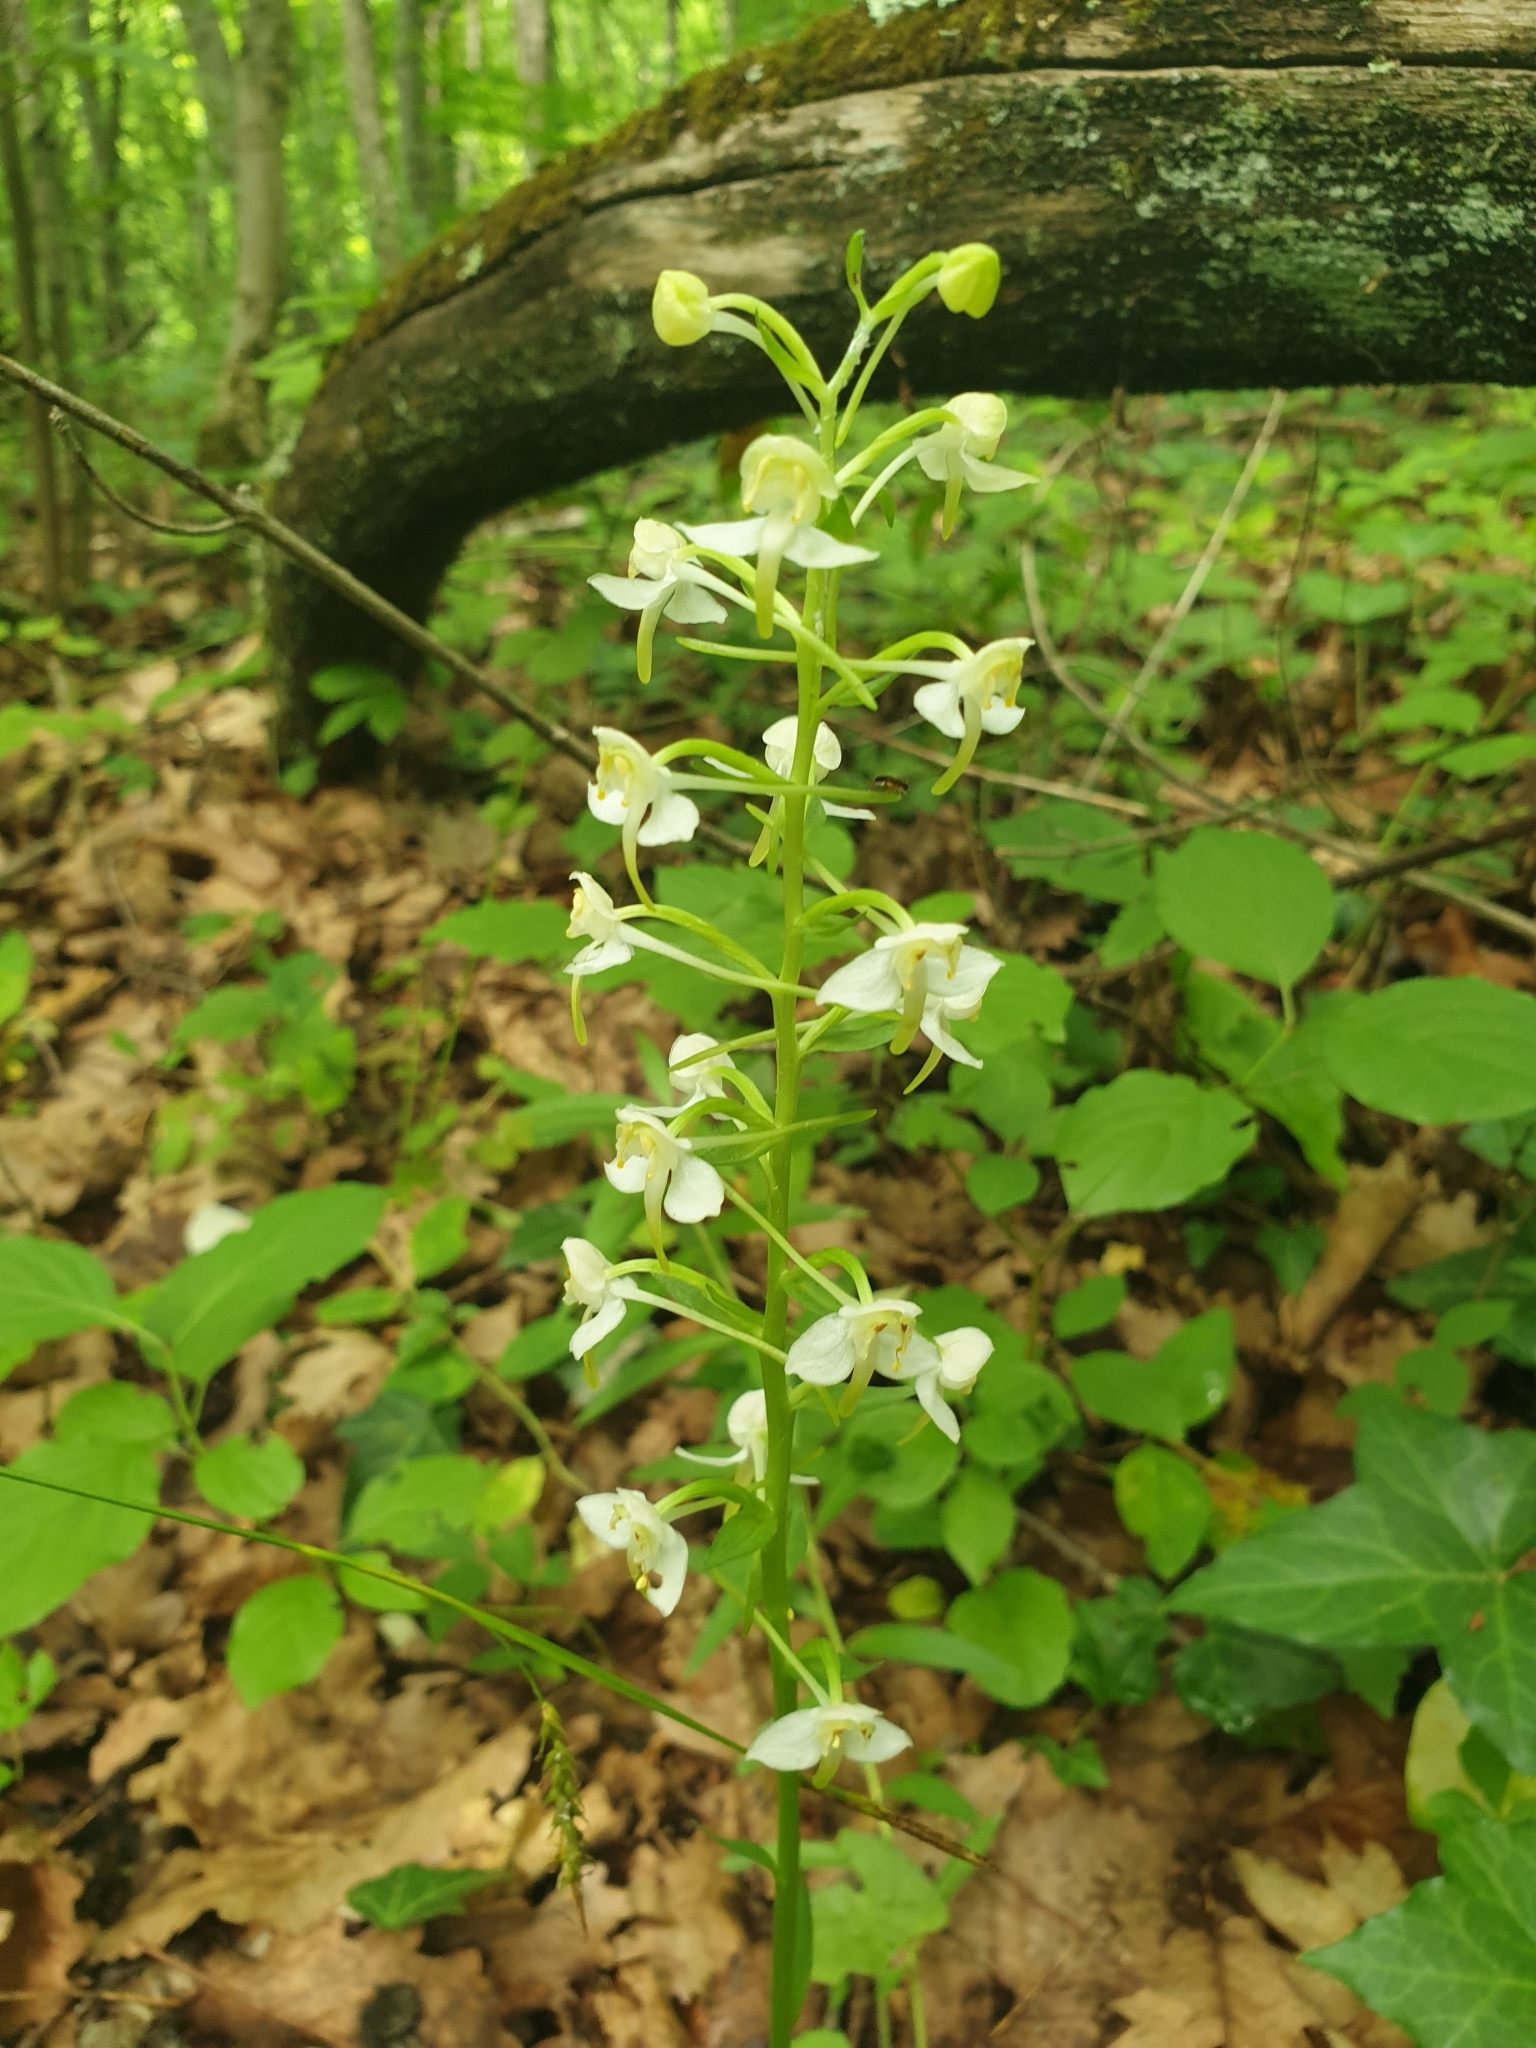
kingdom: Plantae
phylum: Tracheophyta
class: Liliopsida
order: Asparagales
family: Orchidaceae
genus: Platanthera
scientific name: Platanthera chlorantha
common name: Greater butterfly-orchid
